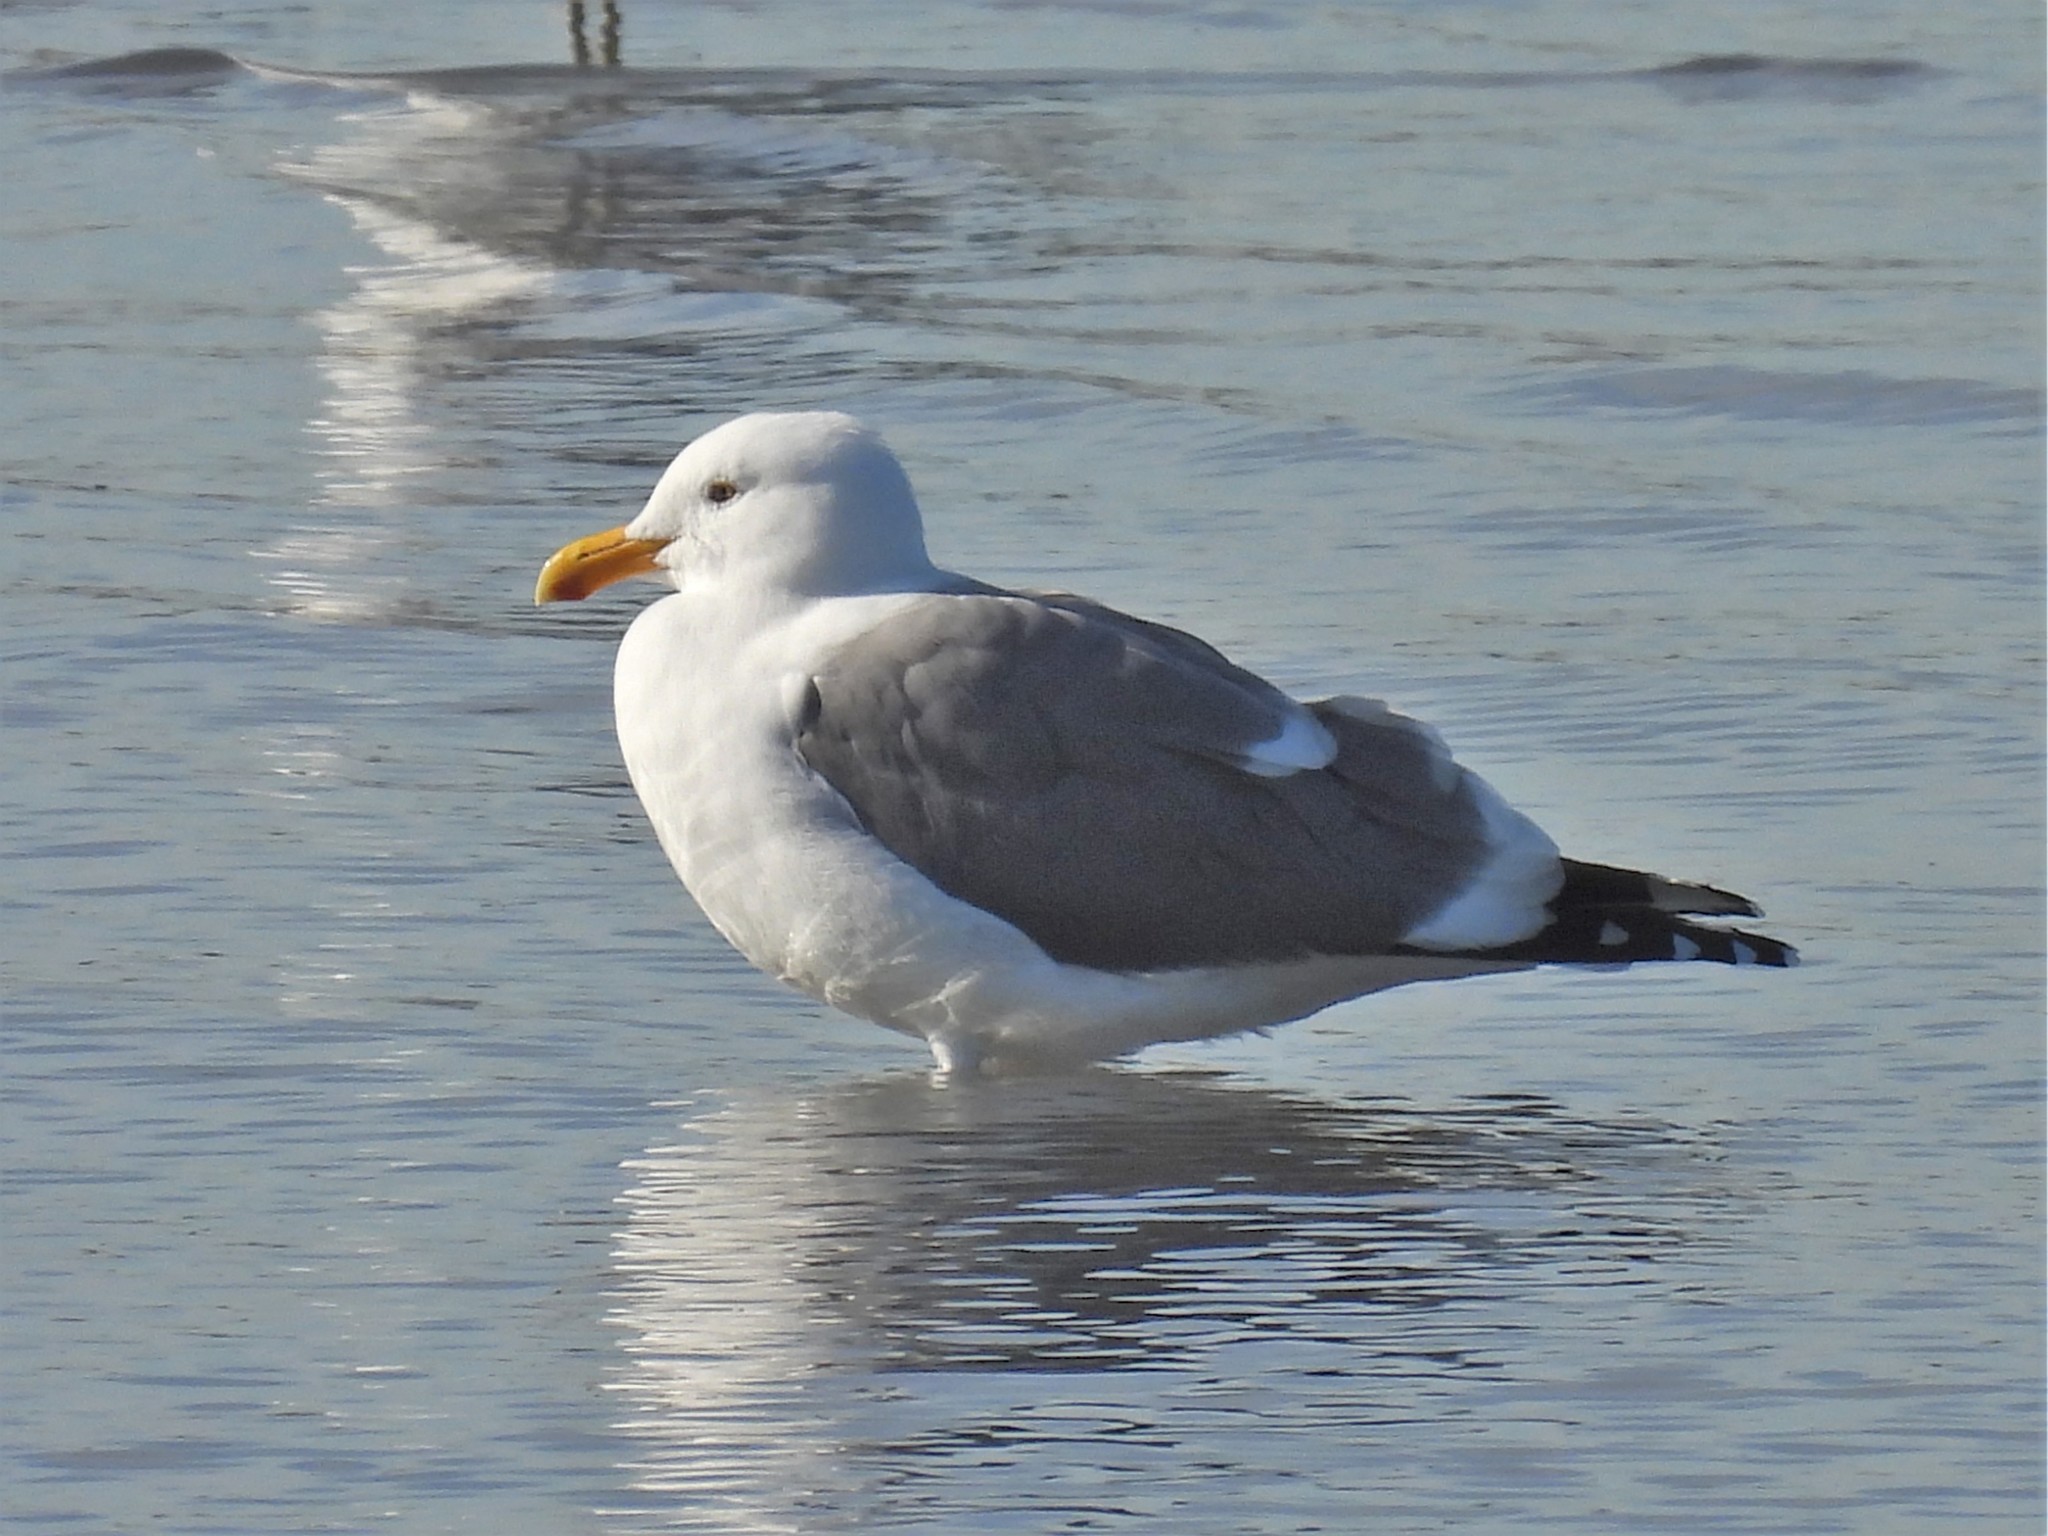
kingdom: Animalia
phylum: Chordata
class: Aves
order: Charadriiformes
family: Laridae
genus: Larus
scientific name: Larus occidentalis
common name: Western gull
